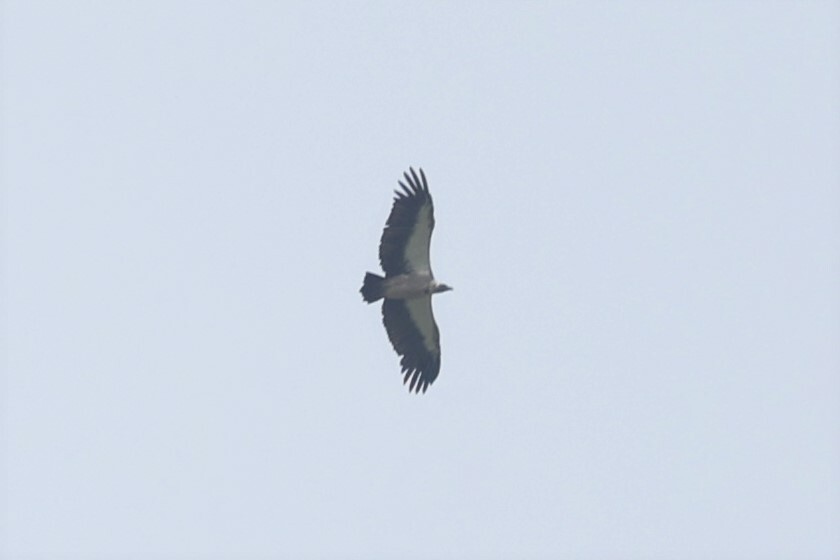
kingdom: Animalia
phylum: Chordata
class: Aves
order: Accipitriformes
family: Accipitridae
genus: Gyps
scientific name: Gyps africanus
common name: White-backed vulture
